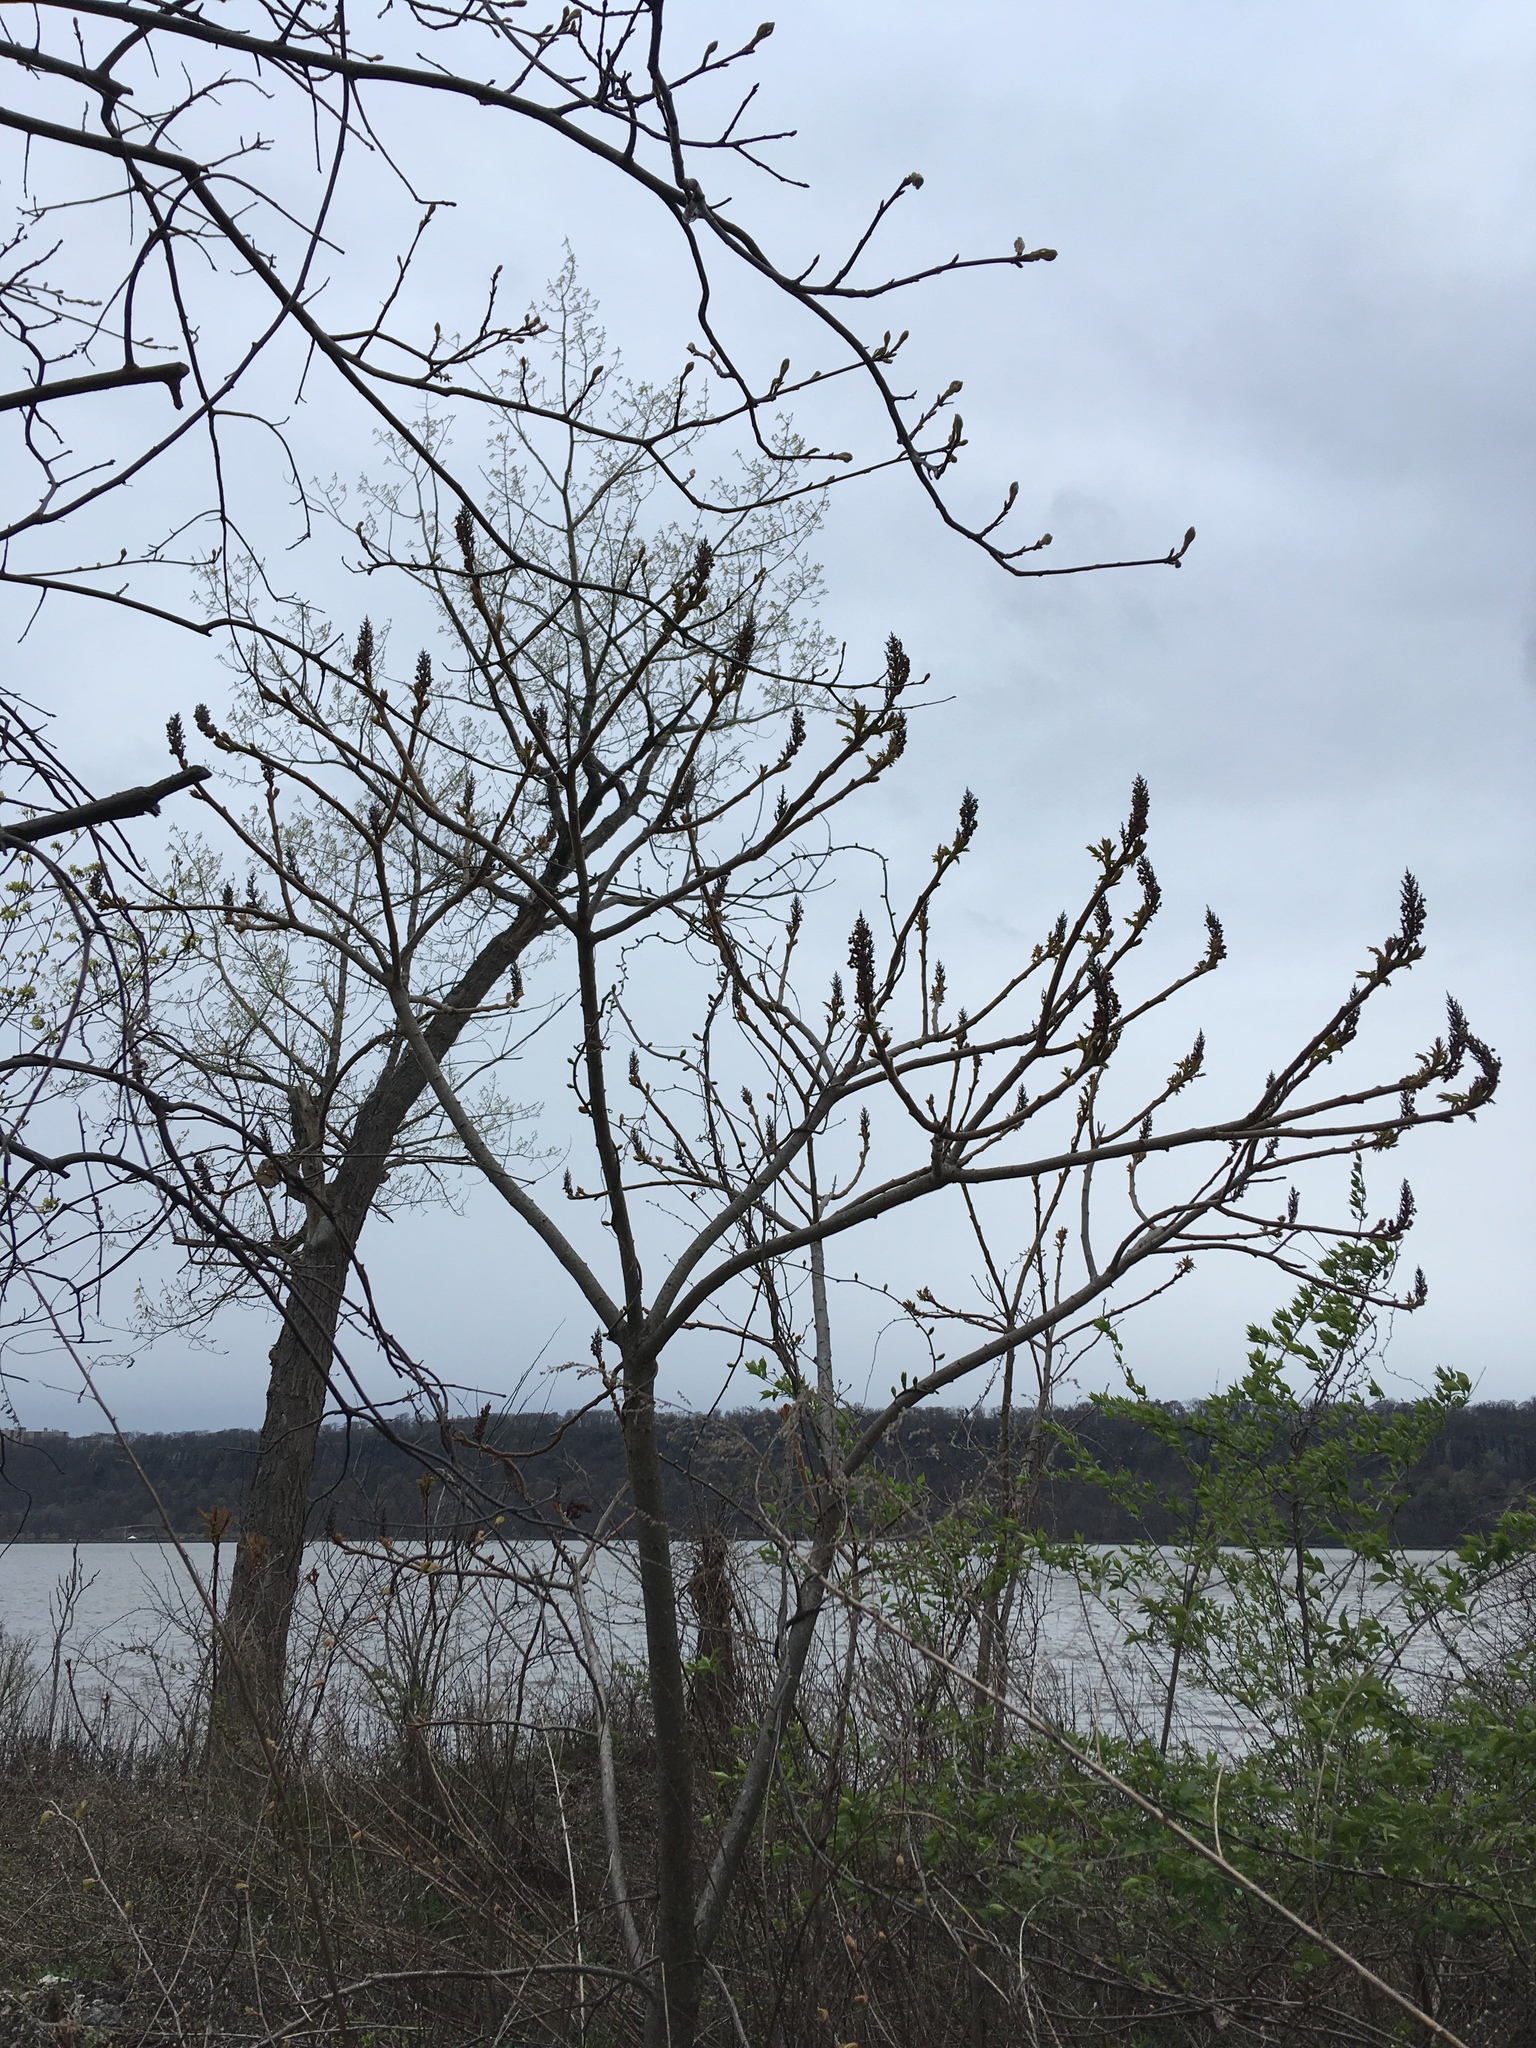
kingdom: Plantae
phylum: Tracheophyta
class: Magnoliopsida
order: Sapindales
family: Anacardiaceae
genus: Rhus
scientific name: Rhus typhina
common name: Staghorn sumac
